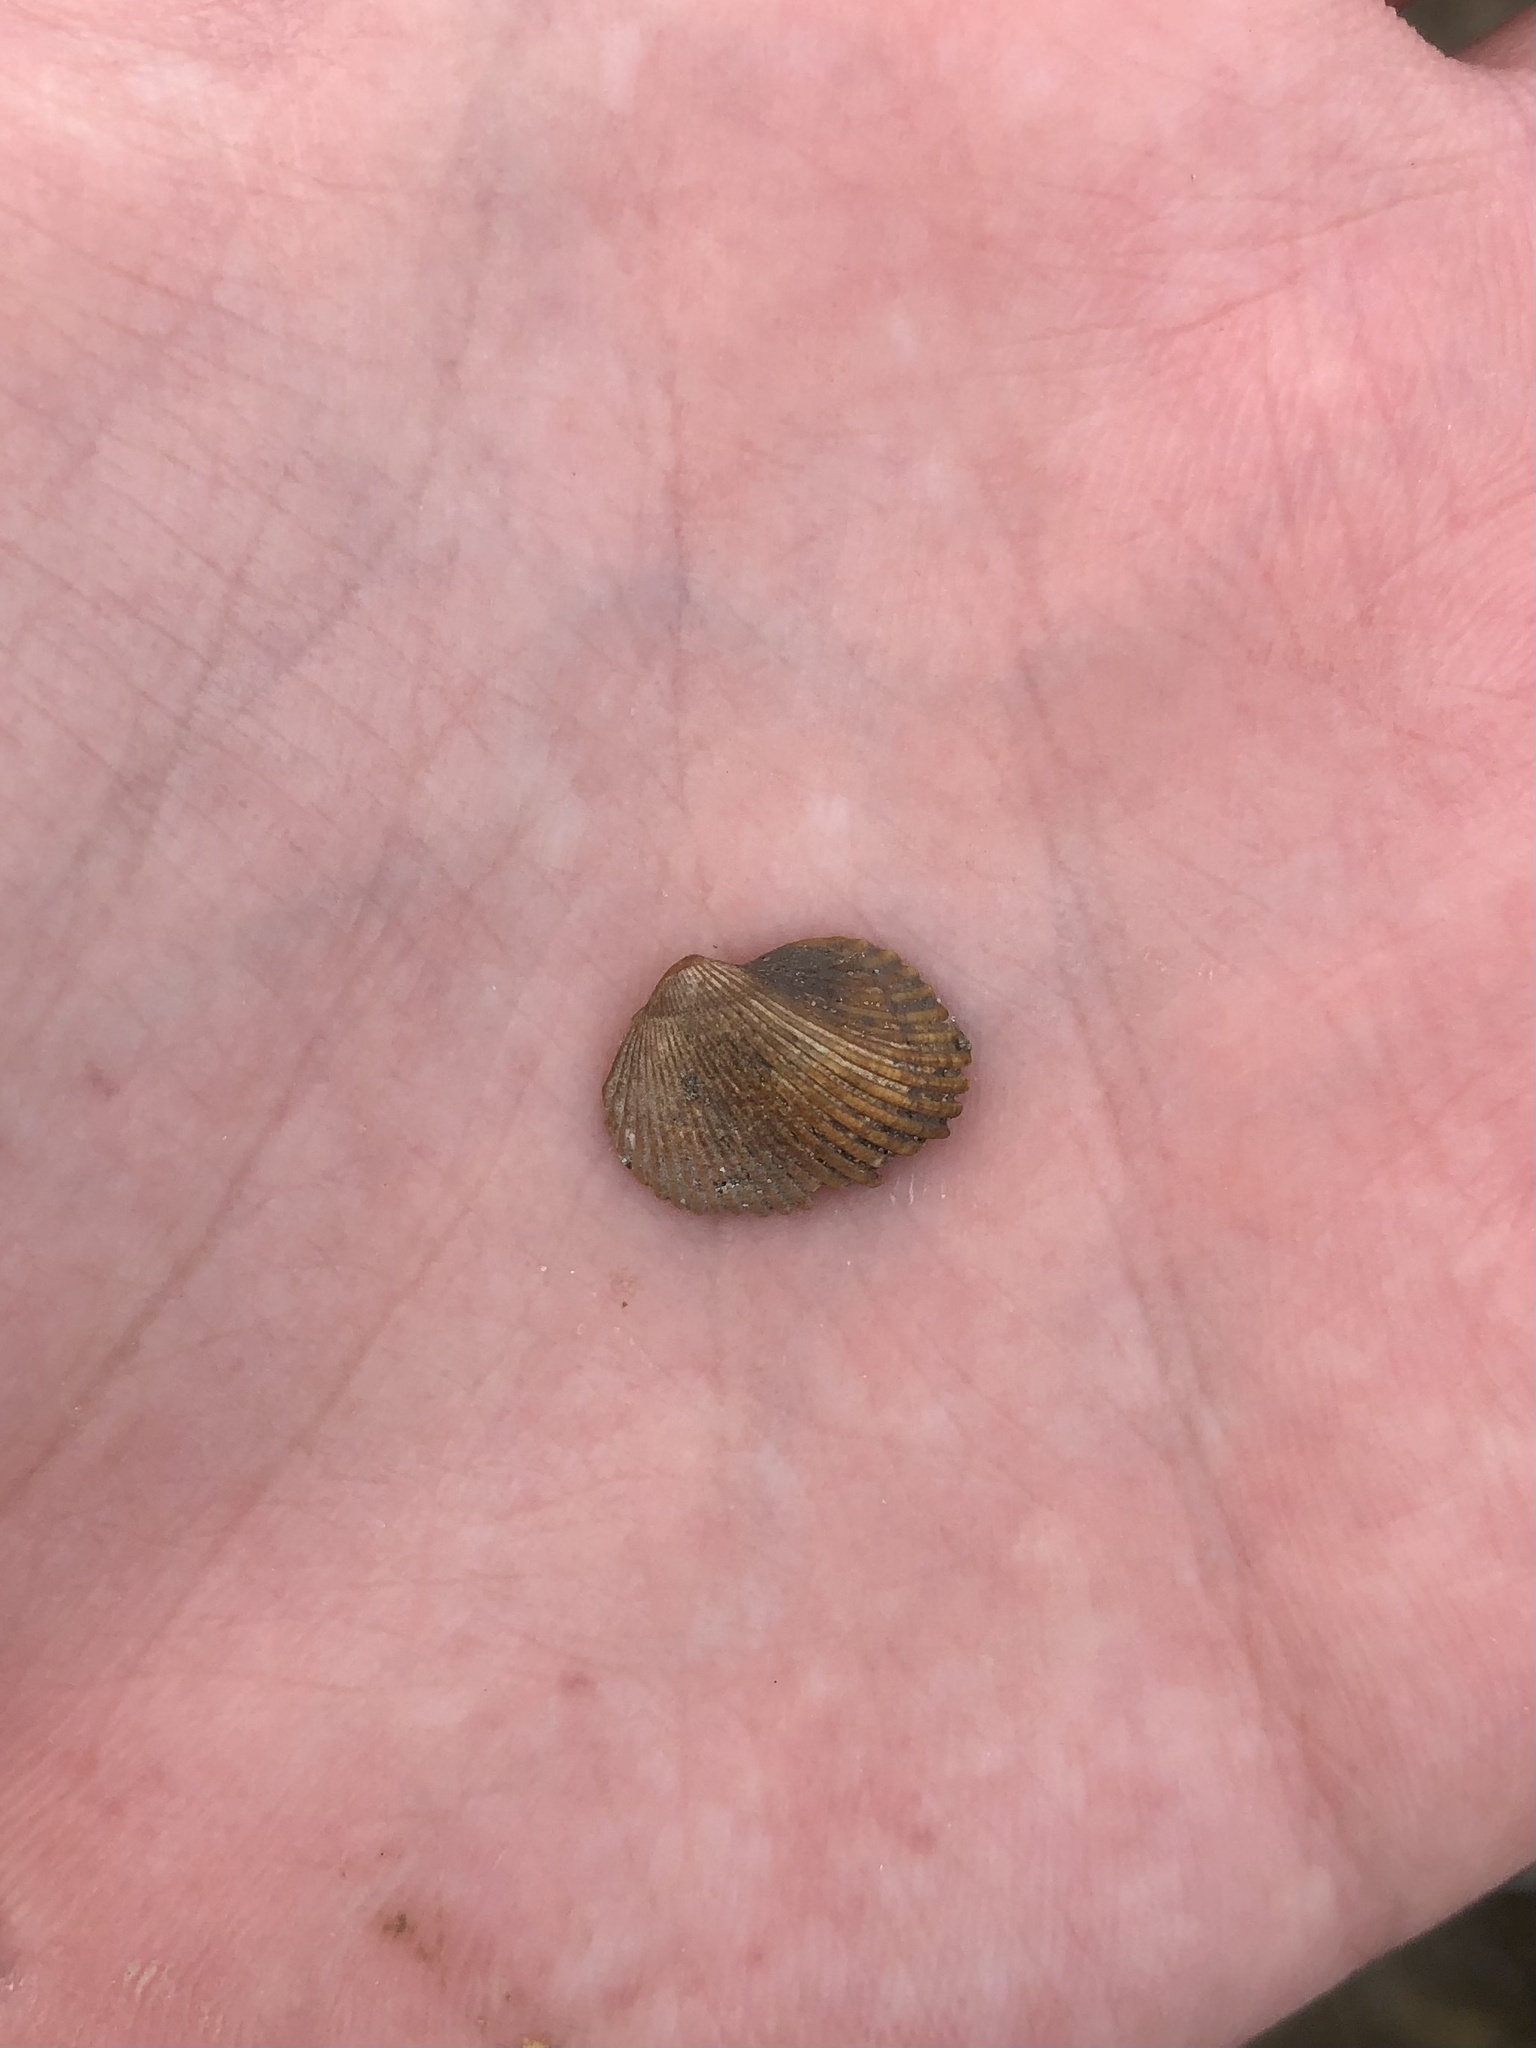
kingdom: Animalia
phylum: Mollusca
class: Bivalvia
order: Arcida
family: Noetiidae
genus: Noetia
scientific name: Noetia ponderosa
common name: Ponderous ark
